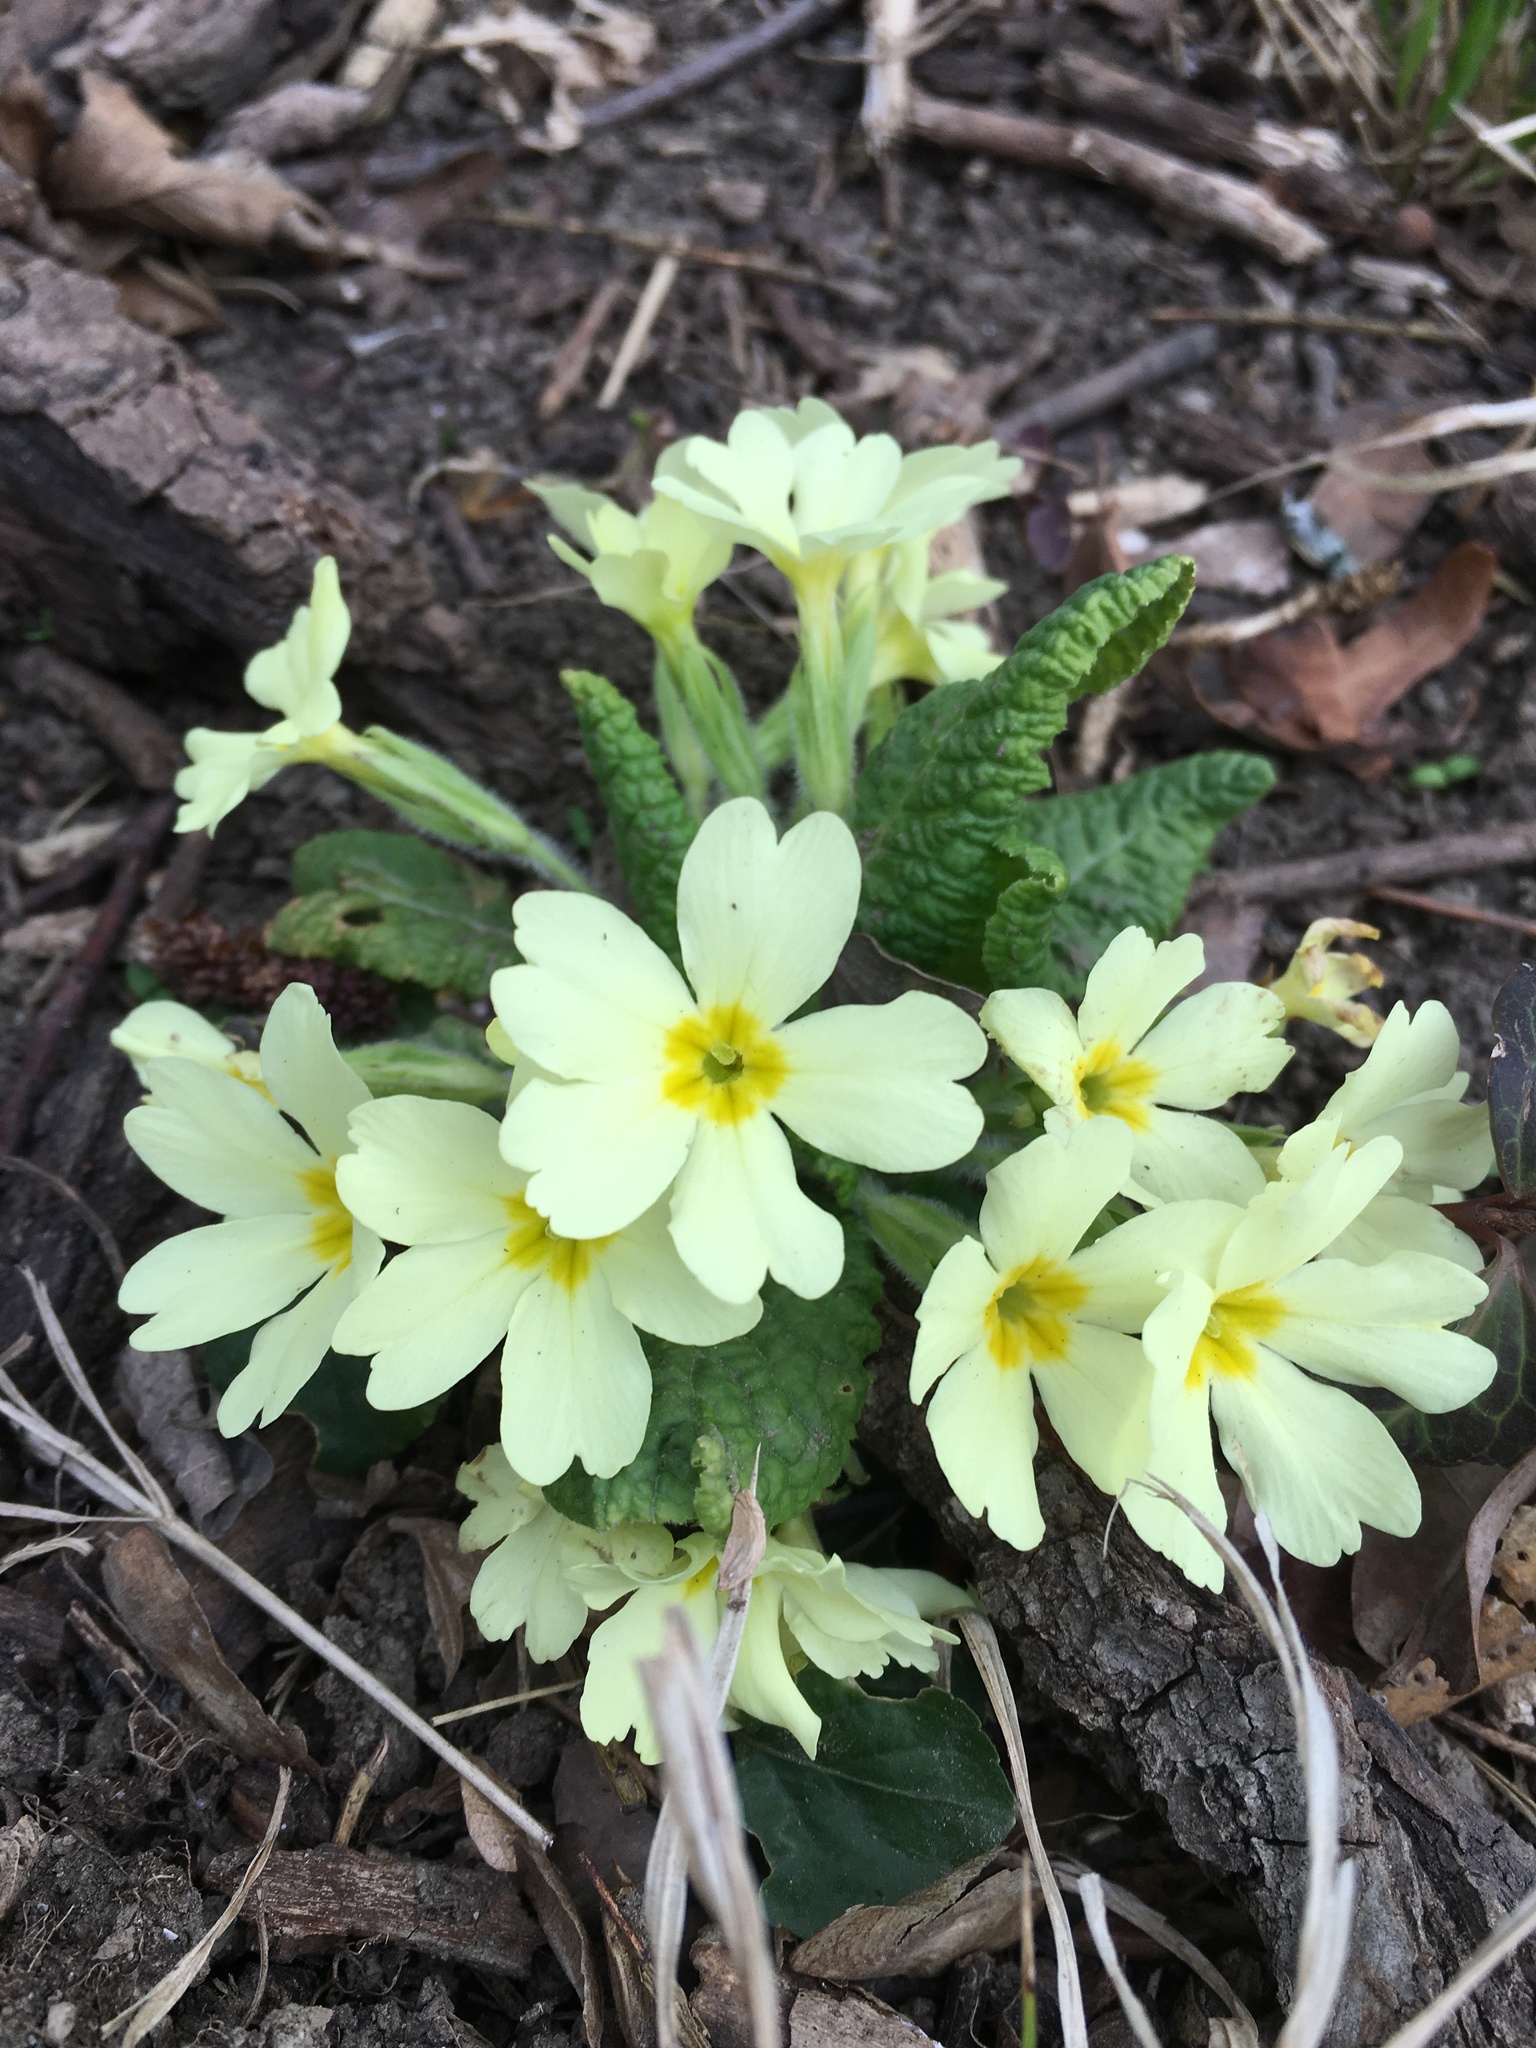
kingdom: Plantae
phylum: Tracheophyta
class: Magnoliopsida
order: Ericales
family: Primulaceae
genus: Primula
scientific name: Primula vulgaris
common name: Primrose
